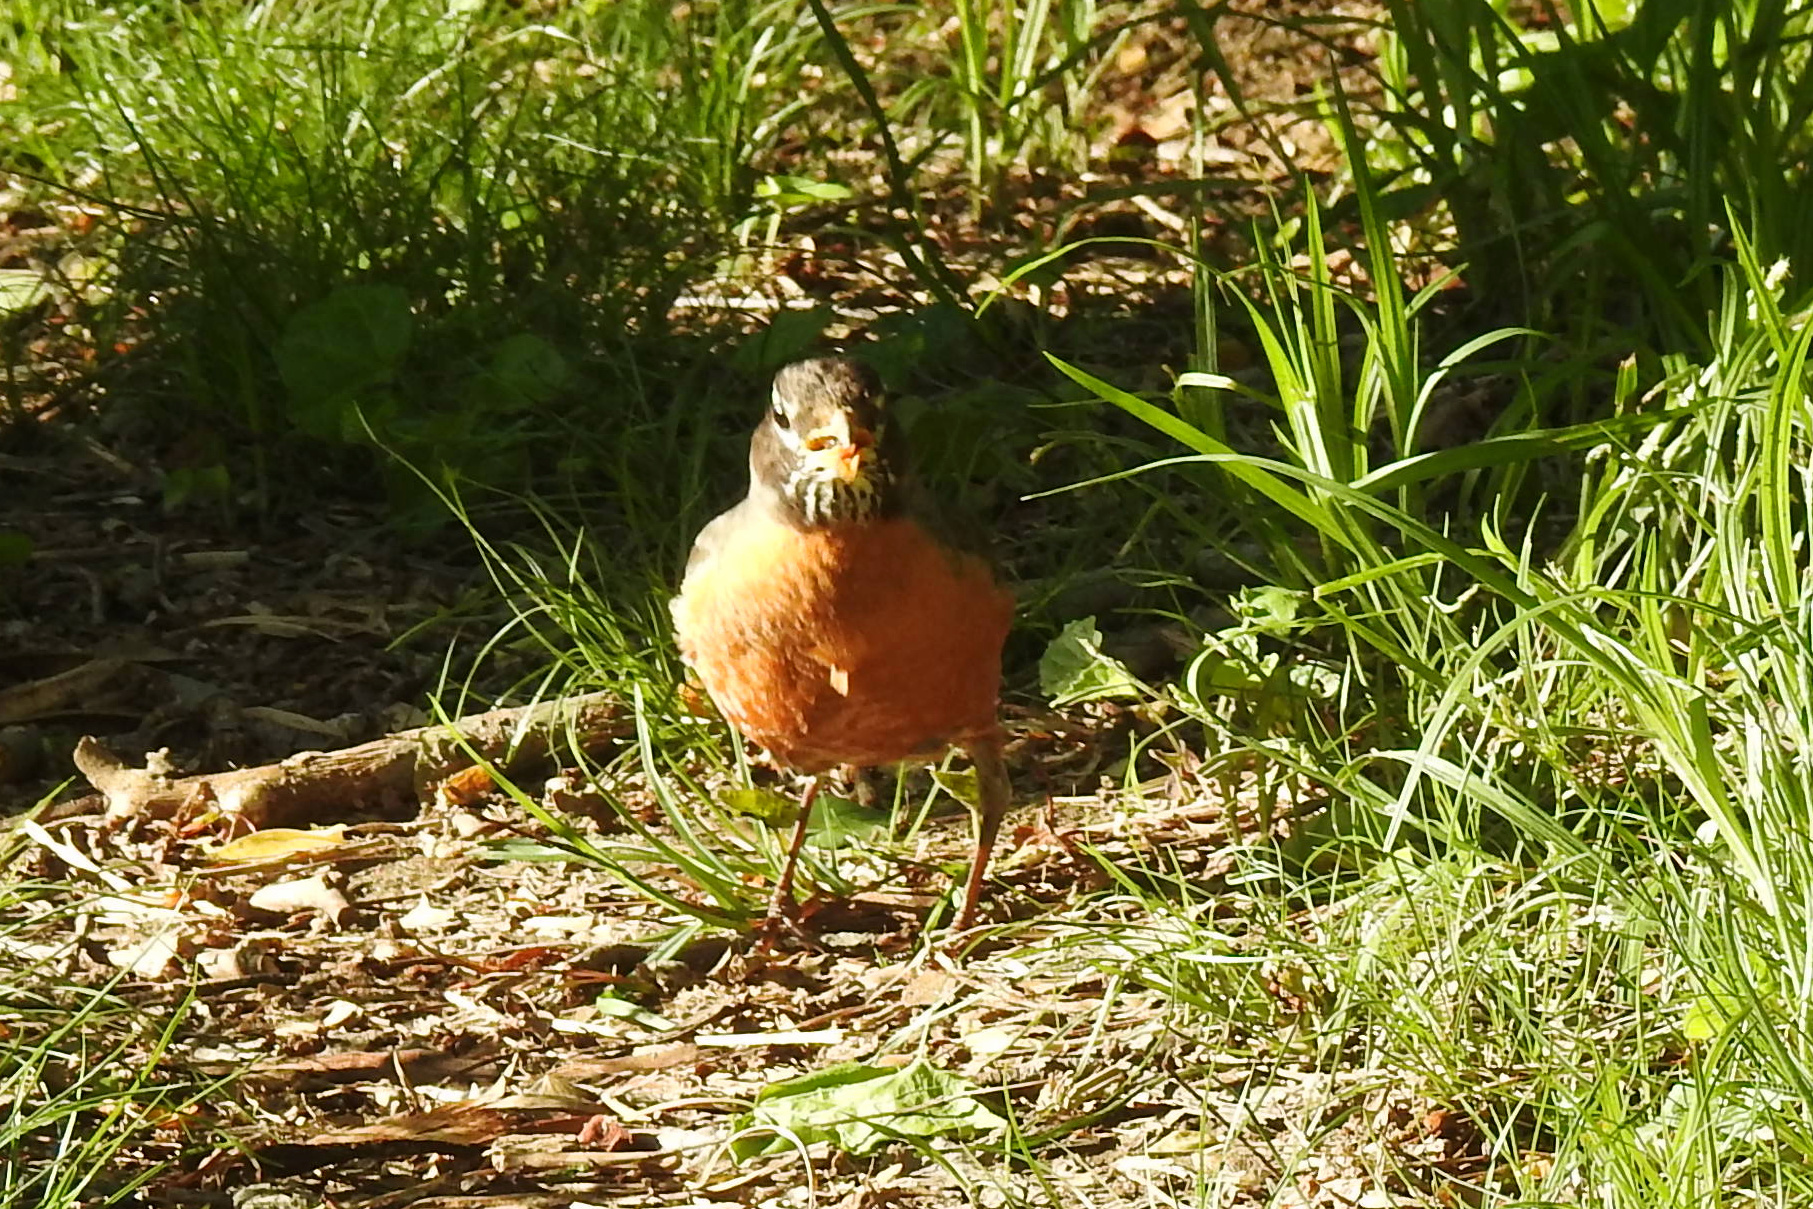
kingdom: Animalia
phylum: Chordata
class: Aves
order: Passeriformes
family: Turdidae
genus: Turdus
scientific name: Turdus migratorius
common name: American robin
